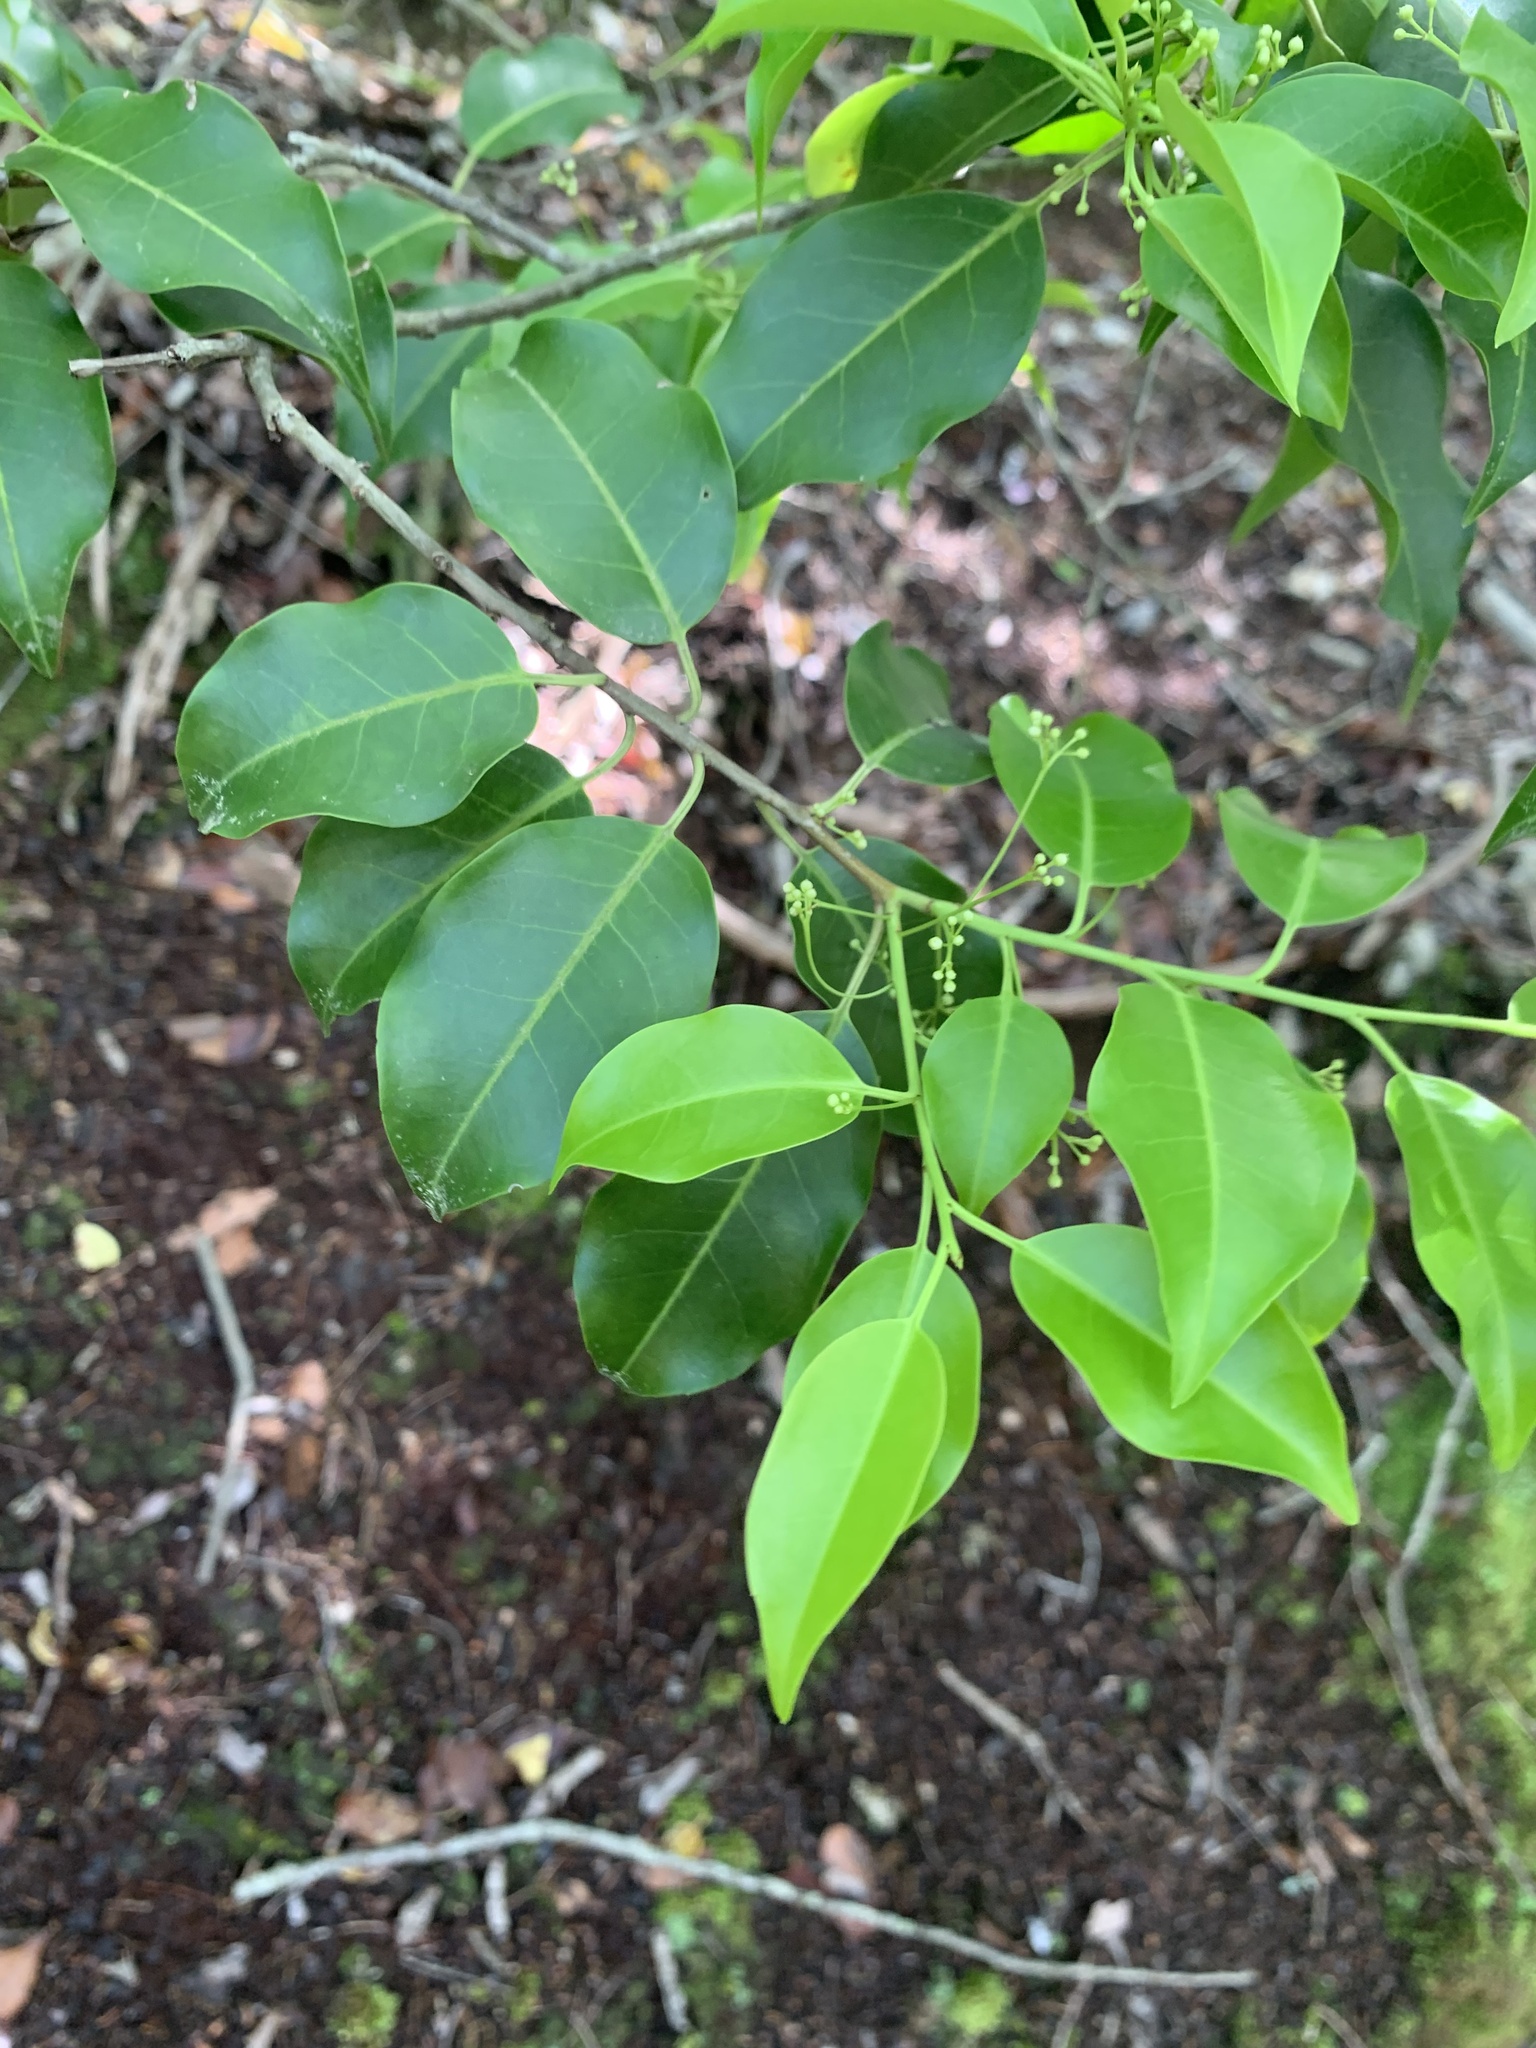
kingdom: Plantae
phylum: Tracheophyta
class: Magnoliopsida
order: Aquifoliales
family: Aquifoliaceae
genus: Ilex
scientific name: Ilex pedunculosa
